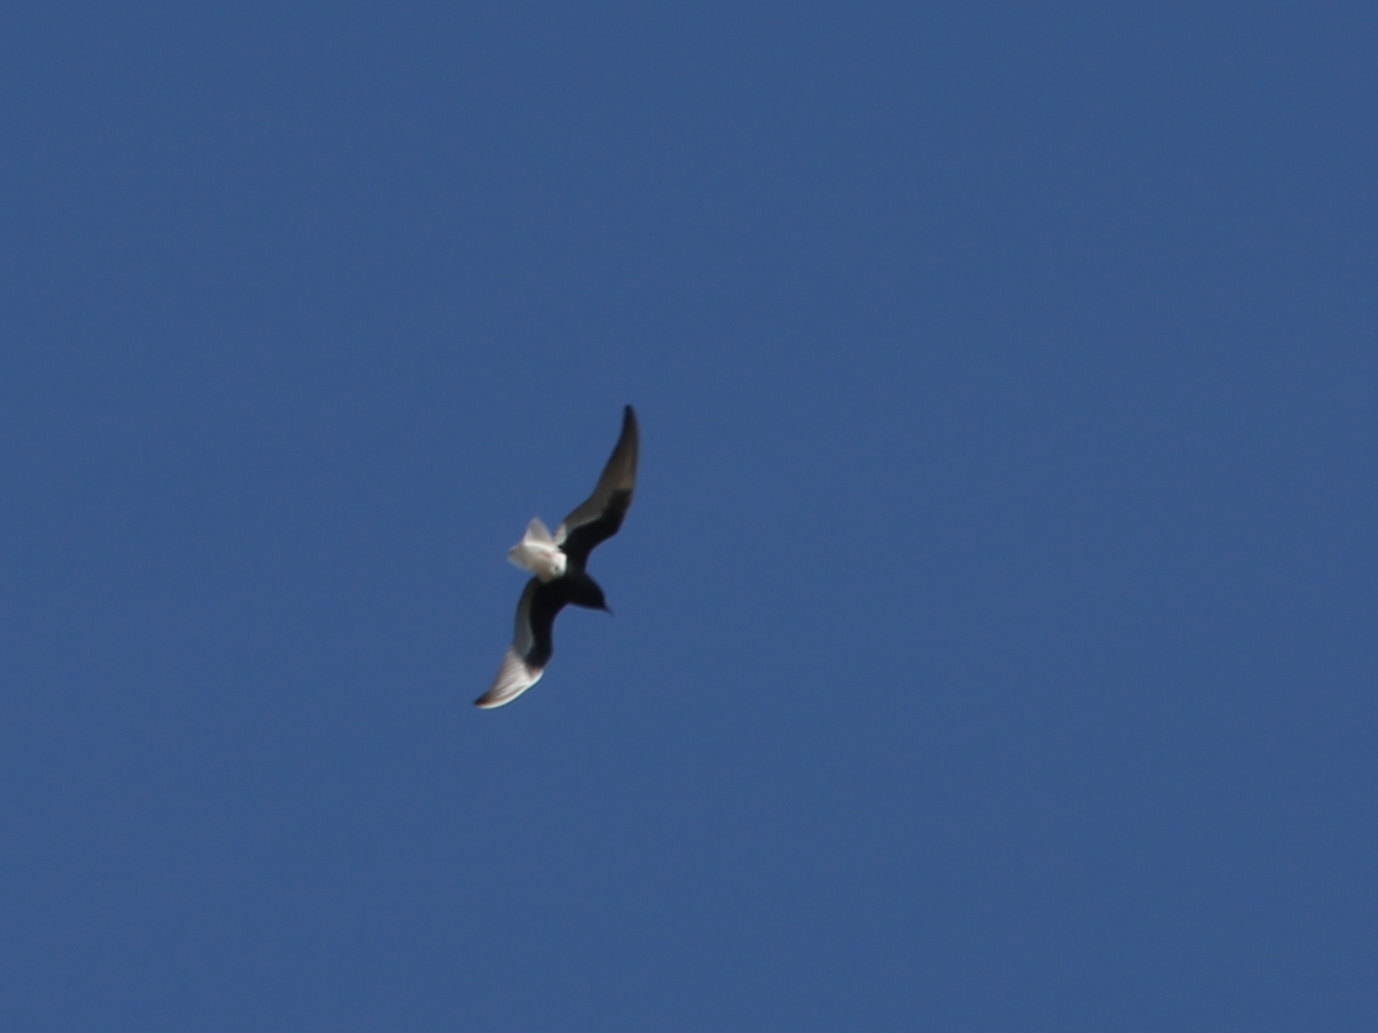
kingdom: Animalia
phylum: Chordata
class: Aves
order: Charadriiformes
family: Laridae
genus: Chlidonias
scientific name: Chlidonias leucopterus
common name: White-winged tern
